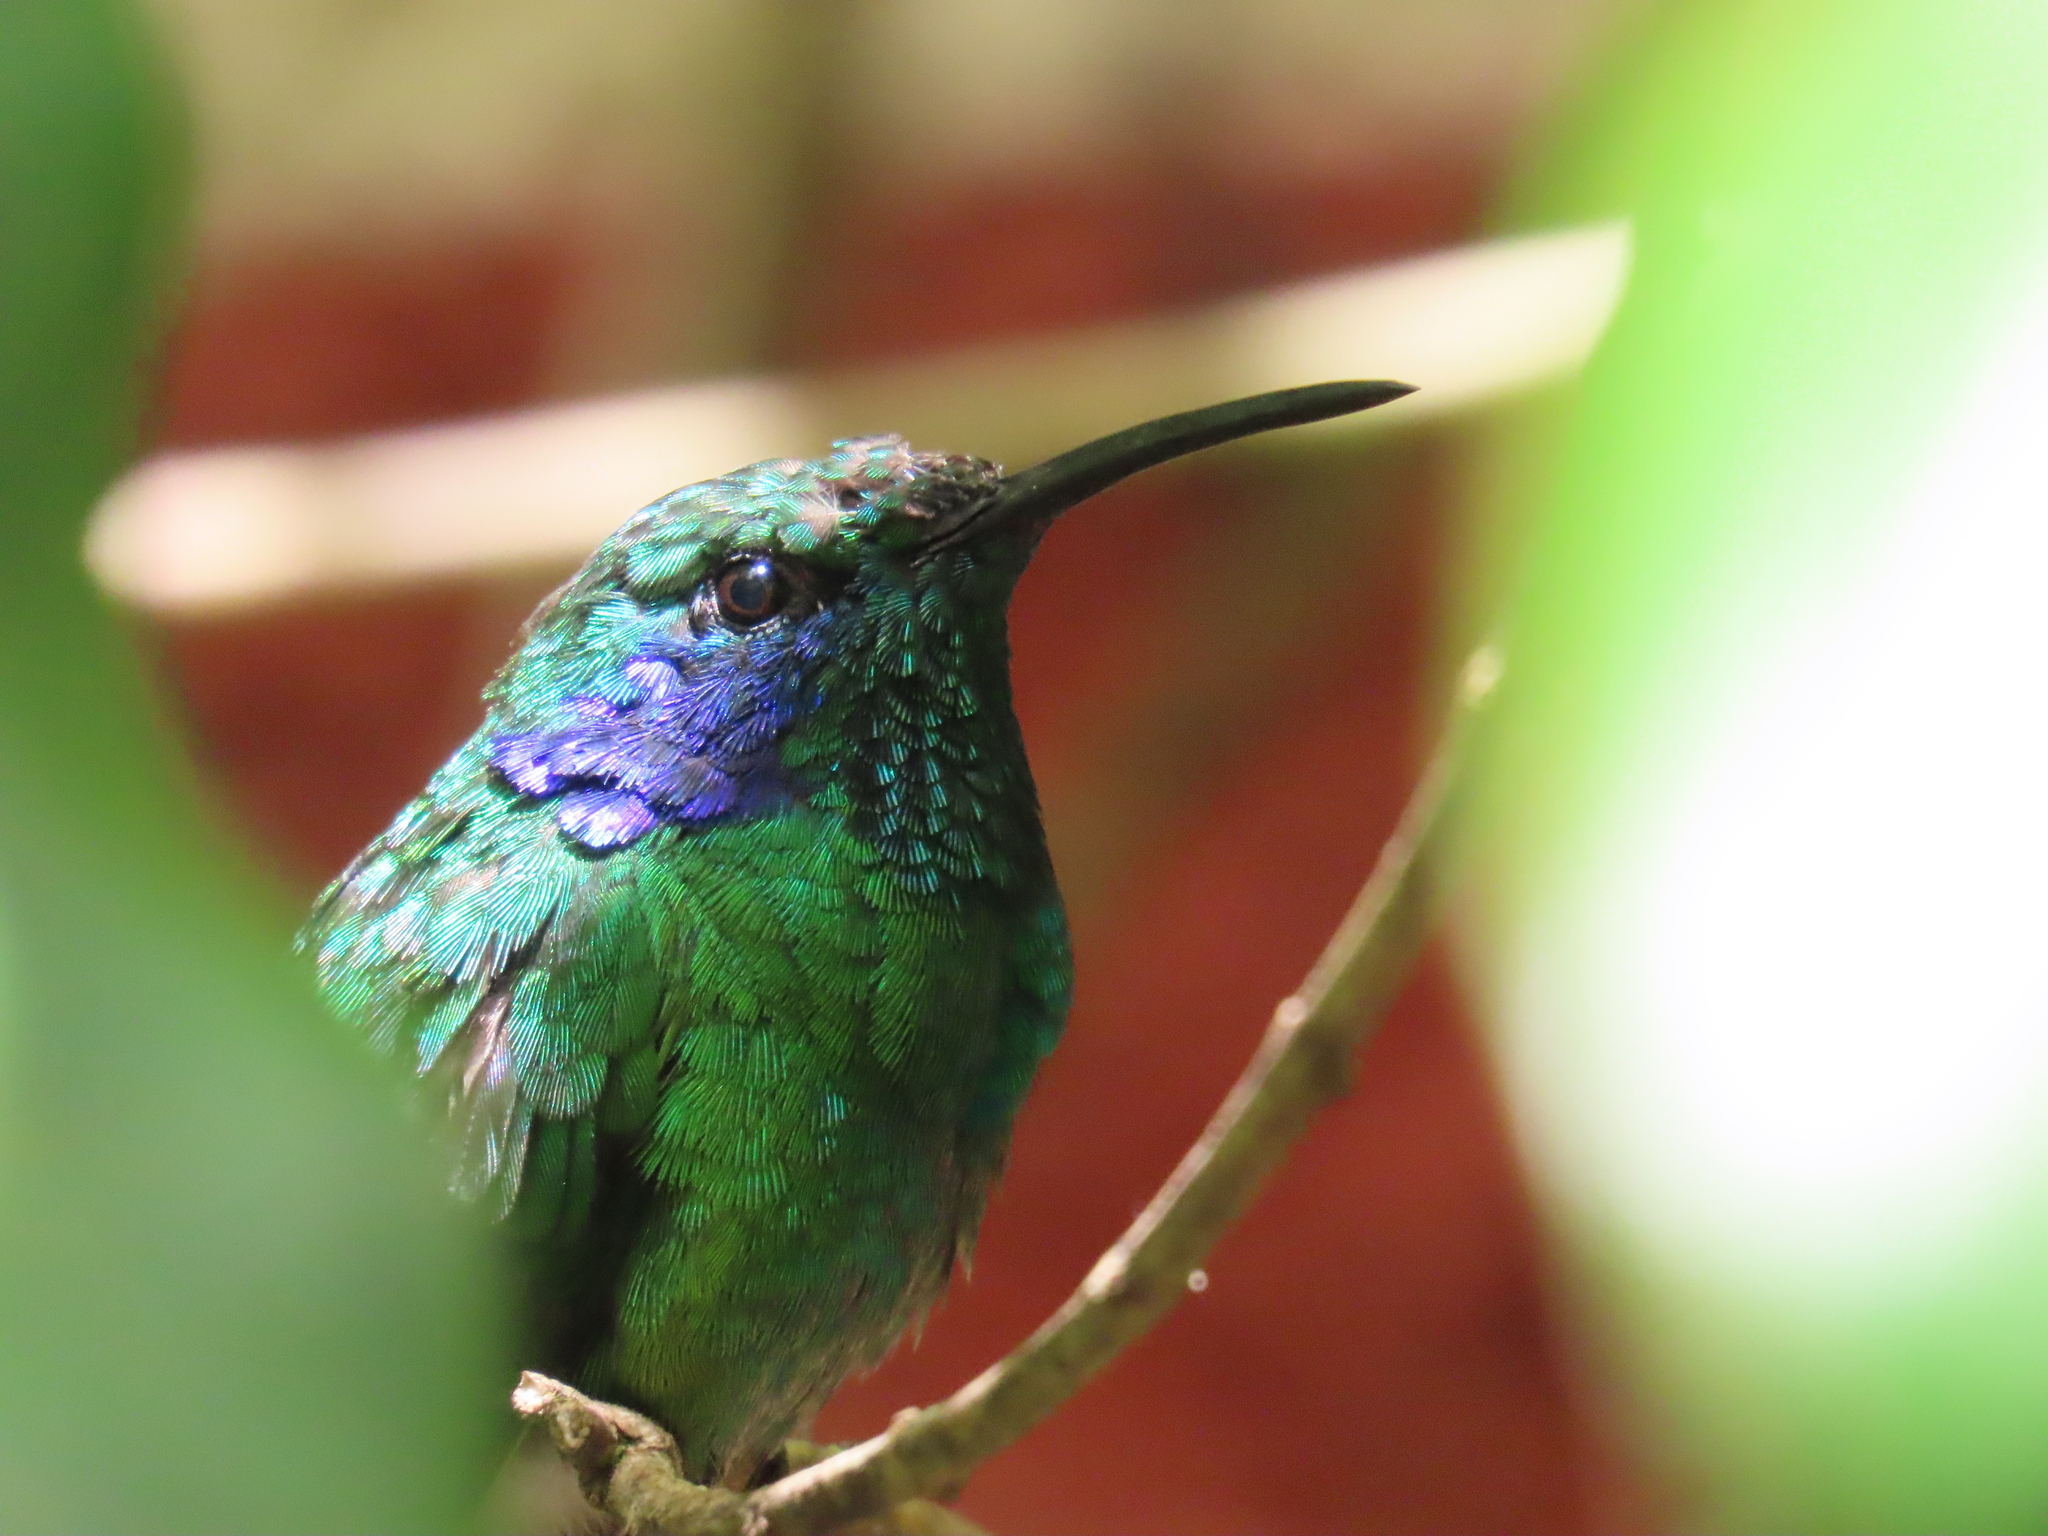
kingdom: Animalia
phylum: Chordata
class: Aves
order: Apodiformes
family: Trochilidae
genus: Colibri
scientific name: Colibri cyanotus
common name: Lesser violetear
